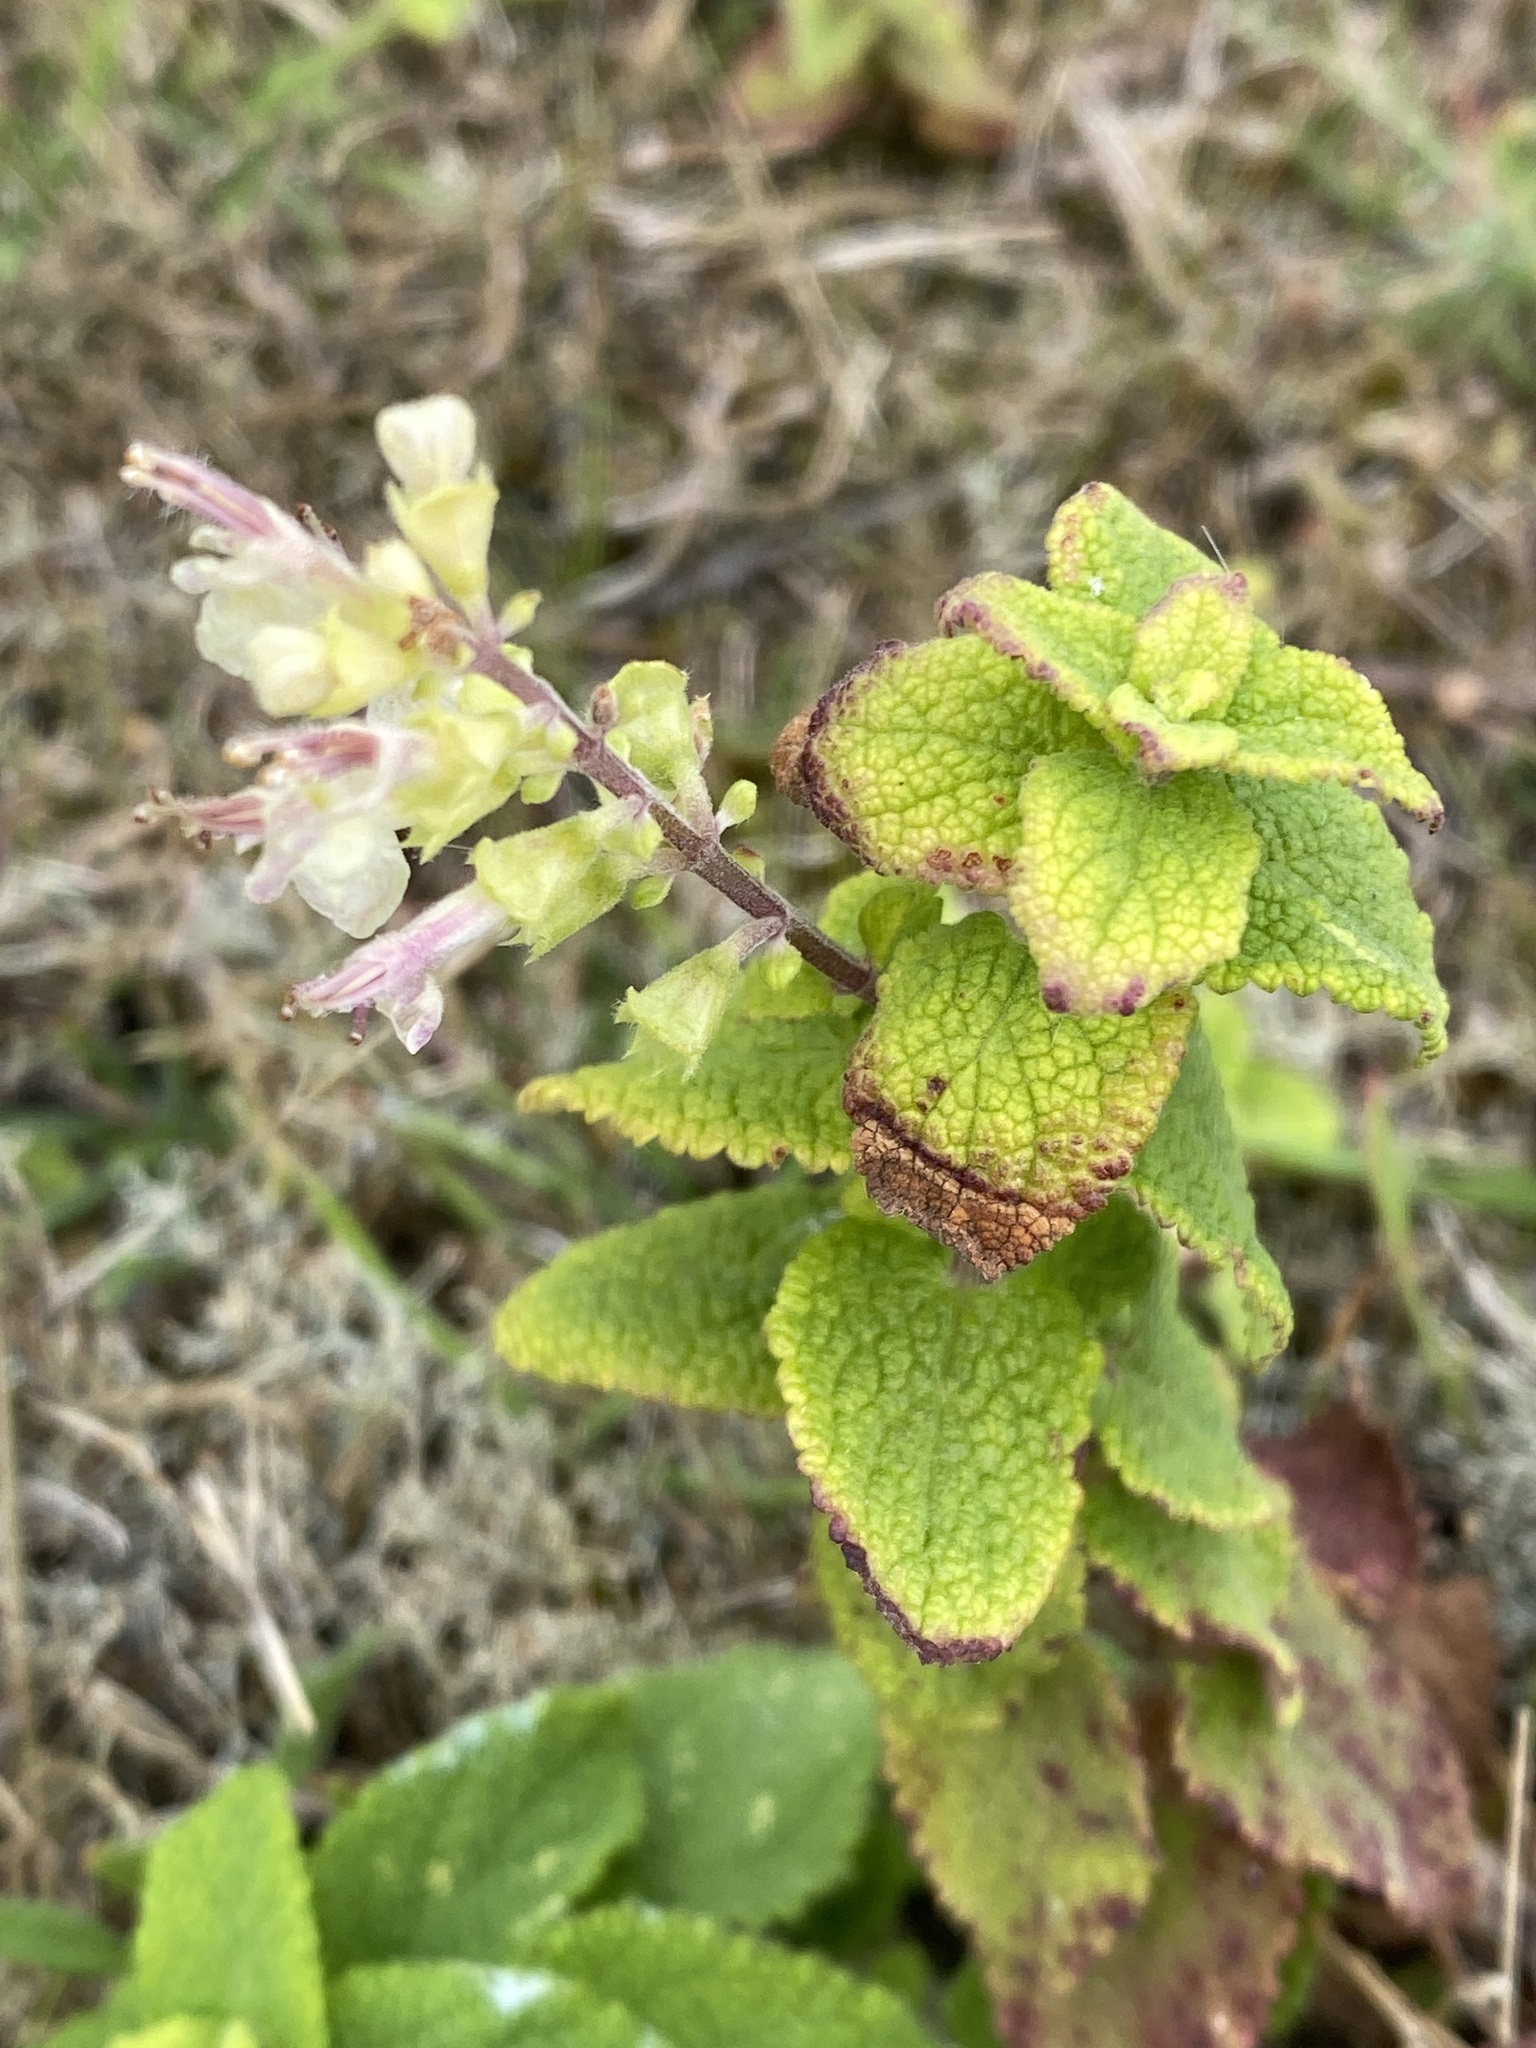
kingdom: Plantae
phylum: Tracheophyta
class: Magnoliopsida
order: Lamiales
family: Lamiaceae
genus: Teucrium
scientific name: Teucrium scorodonia
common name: Woodland germander
